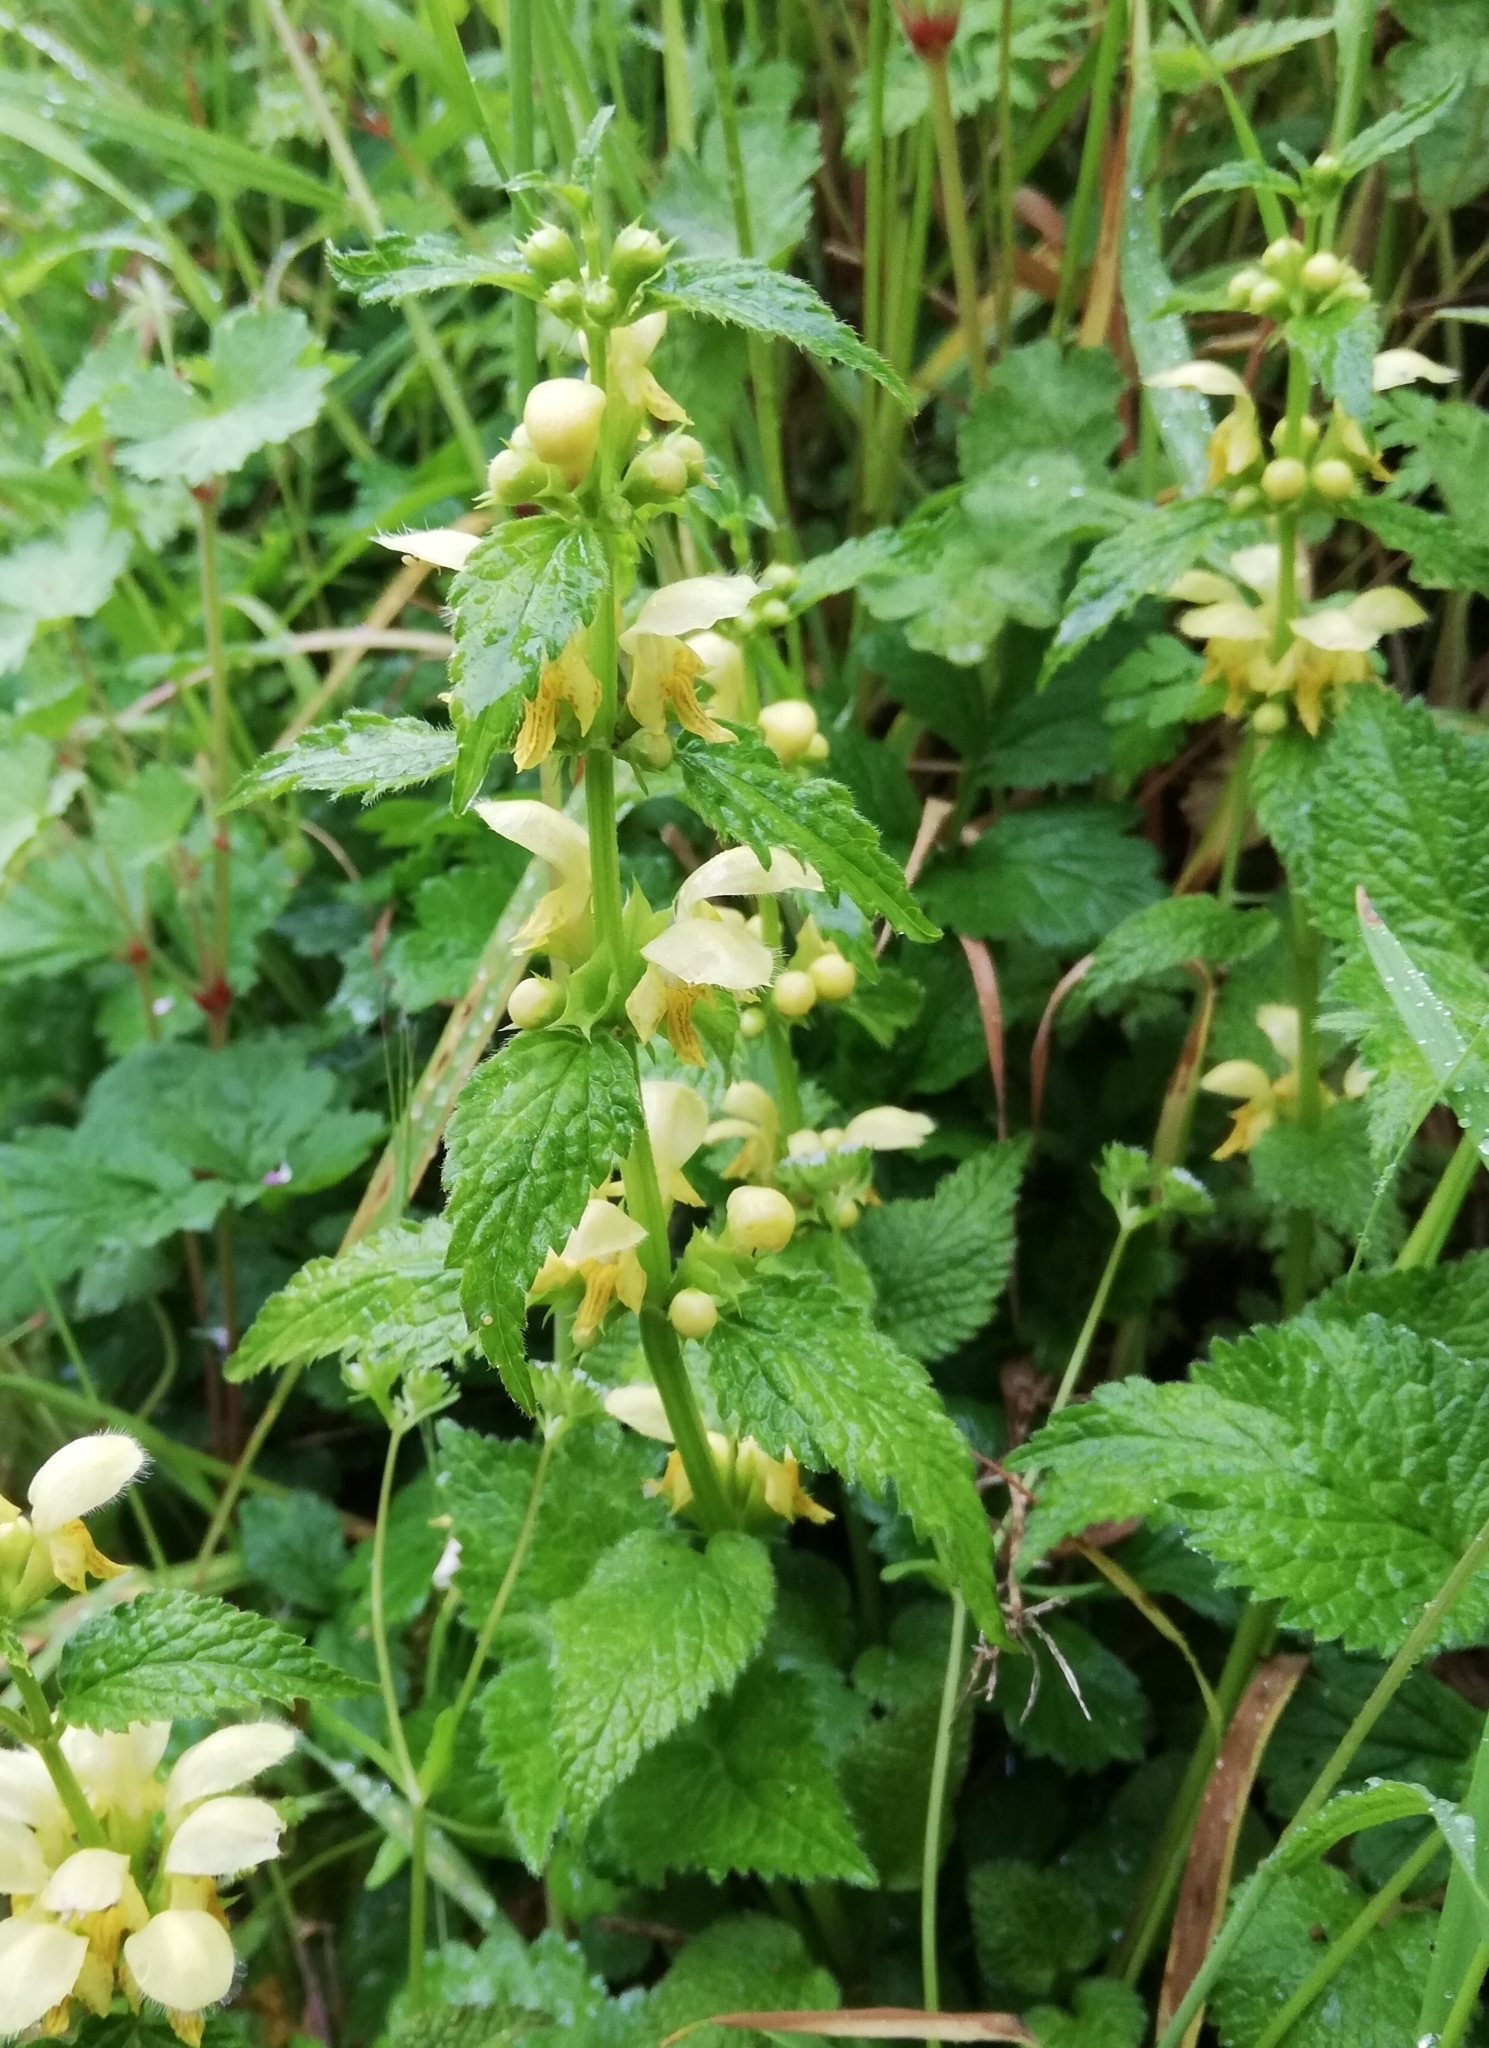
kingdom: Plantae
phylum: Tracheophyta
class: Magnoliopsida
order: Lamiales
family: Lamiaceae
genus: Lamium
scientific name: Lamium galeobdolon
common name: Yellow archangel
